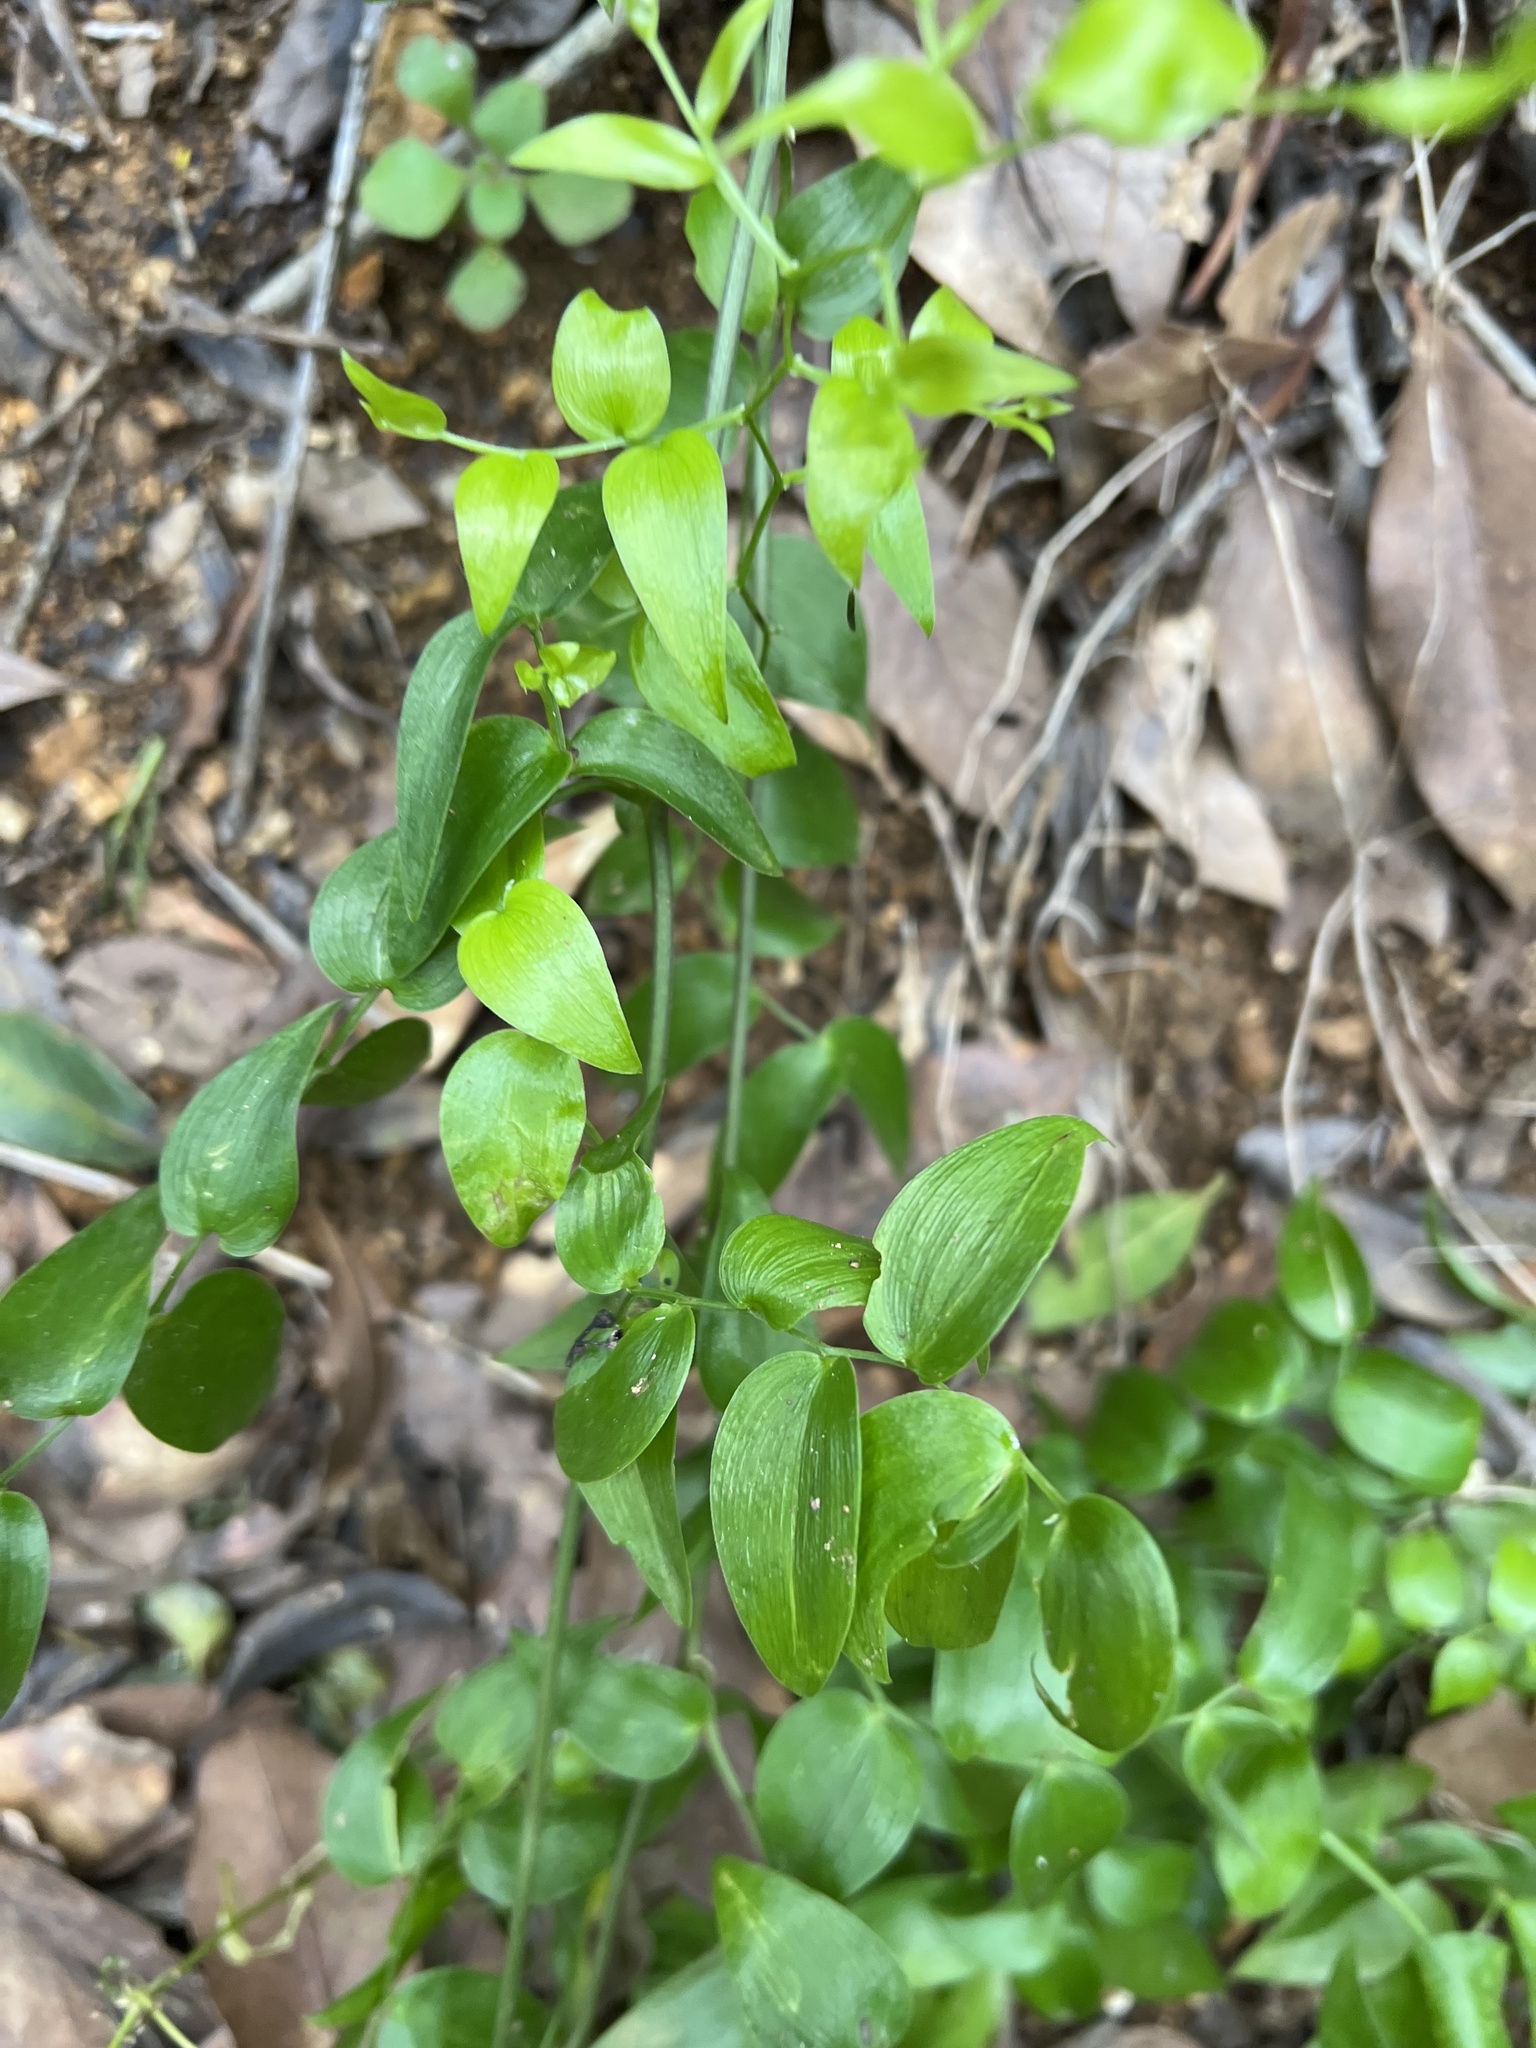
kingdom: Plantae
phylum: Tracheophyta
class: Liliopsida
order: Asparagales
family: Asparagaceae
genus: Asparagus
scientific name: Asparagus asparagoides
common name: African asparagus fern
